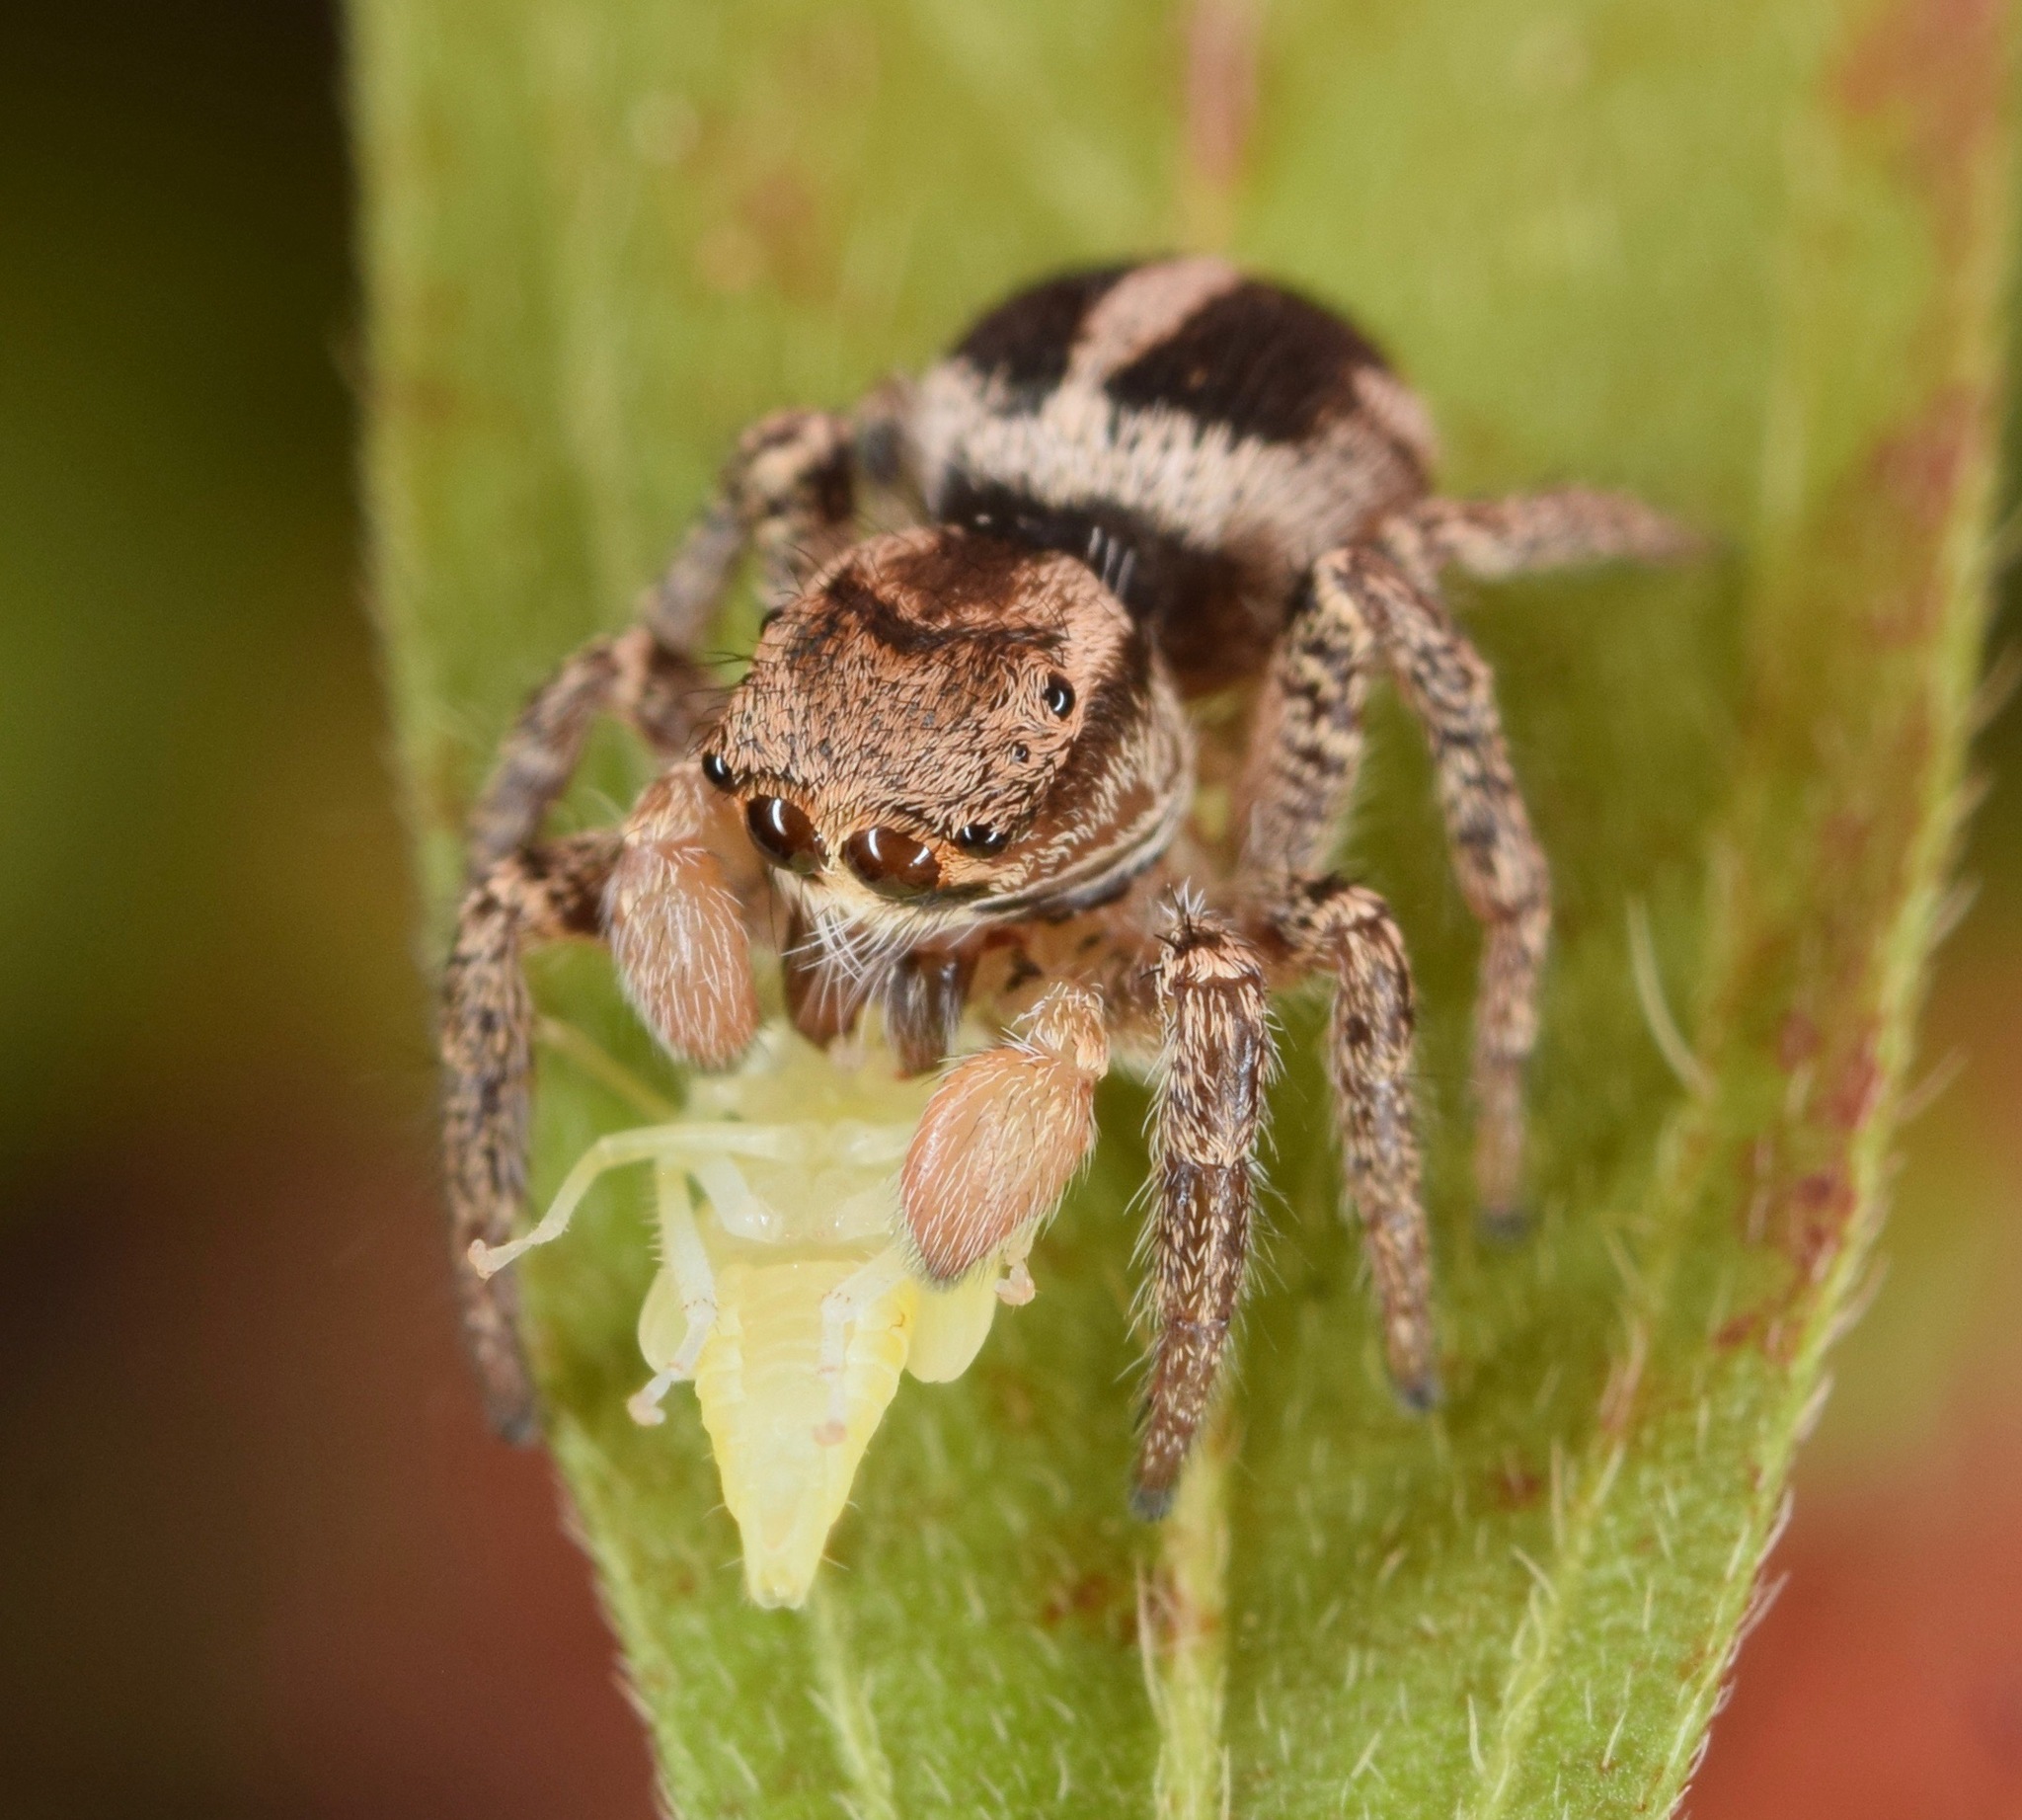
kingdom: Animalia
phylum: Arthropoda
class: Arachnida
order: Araneae
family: Salticidae
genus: Habronattus
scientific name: Habronattus orbus
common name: Orbus paradise spider
